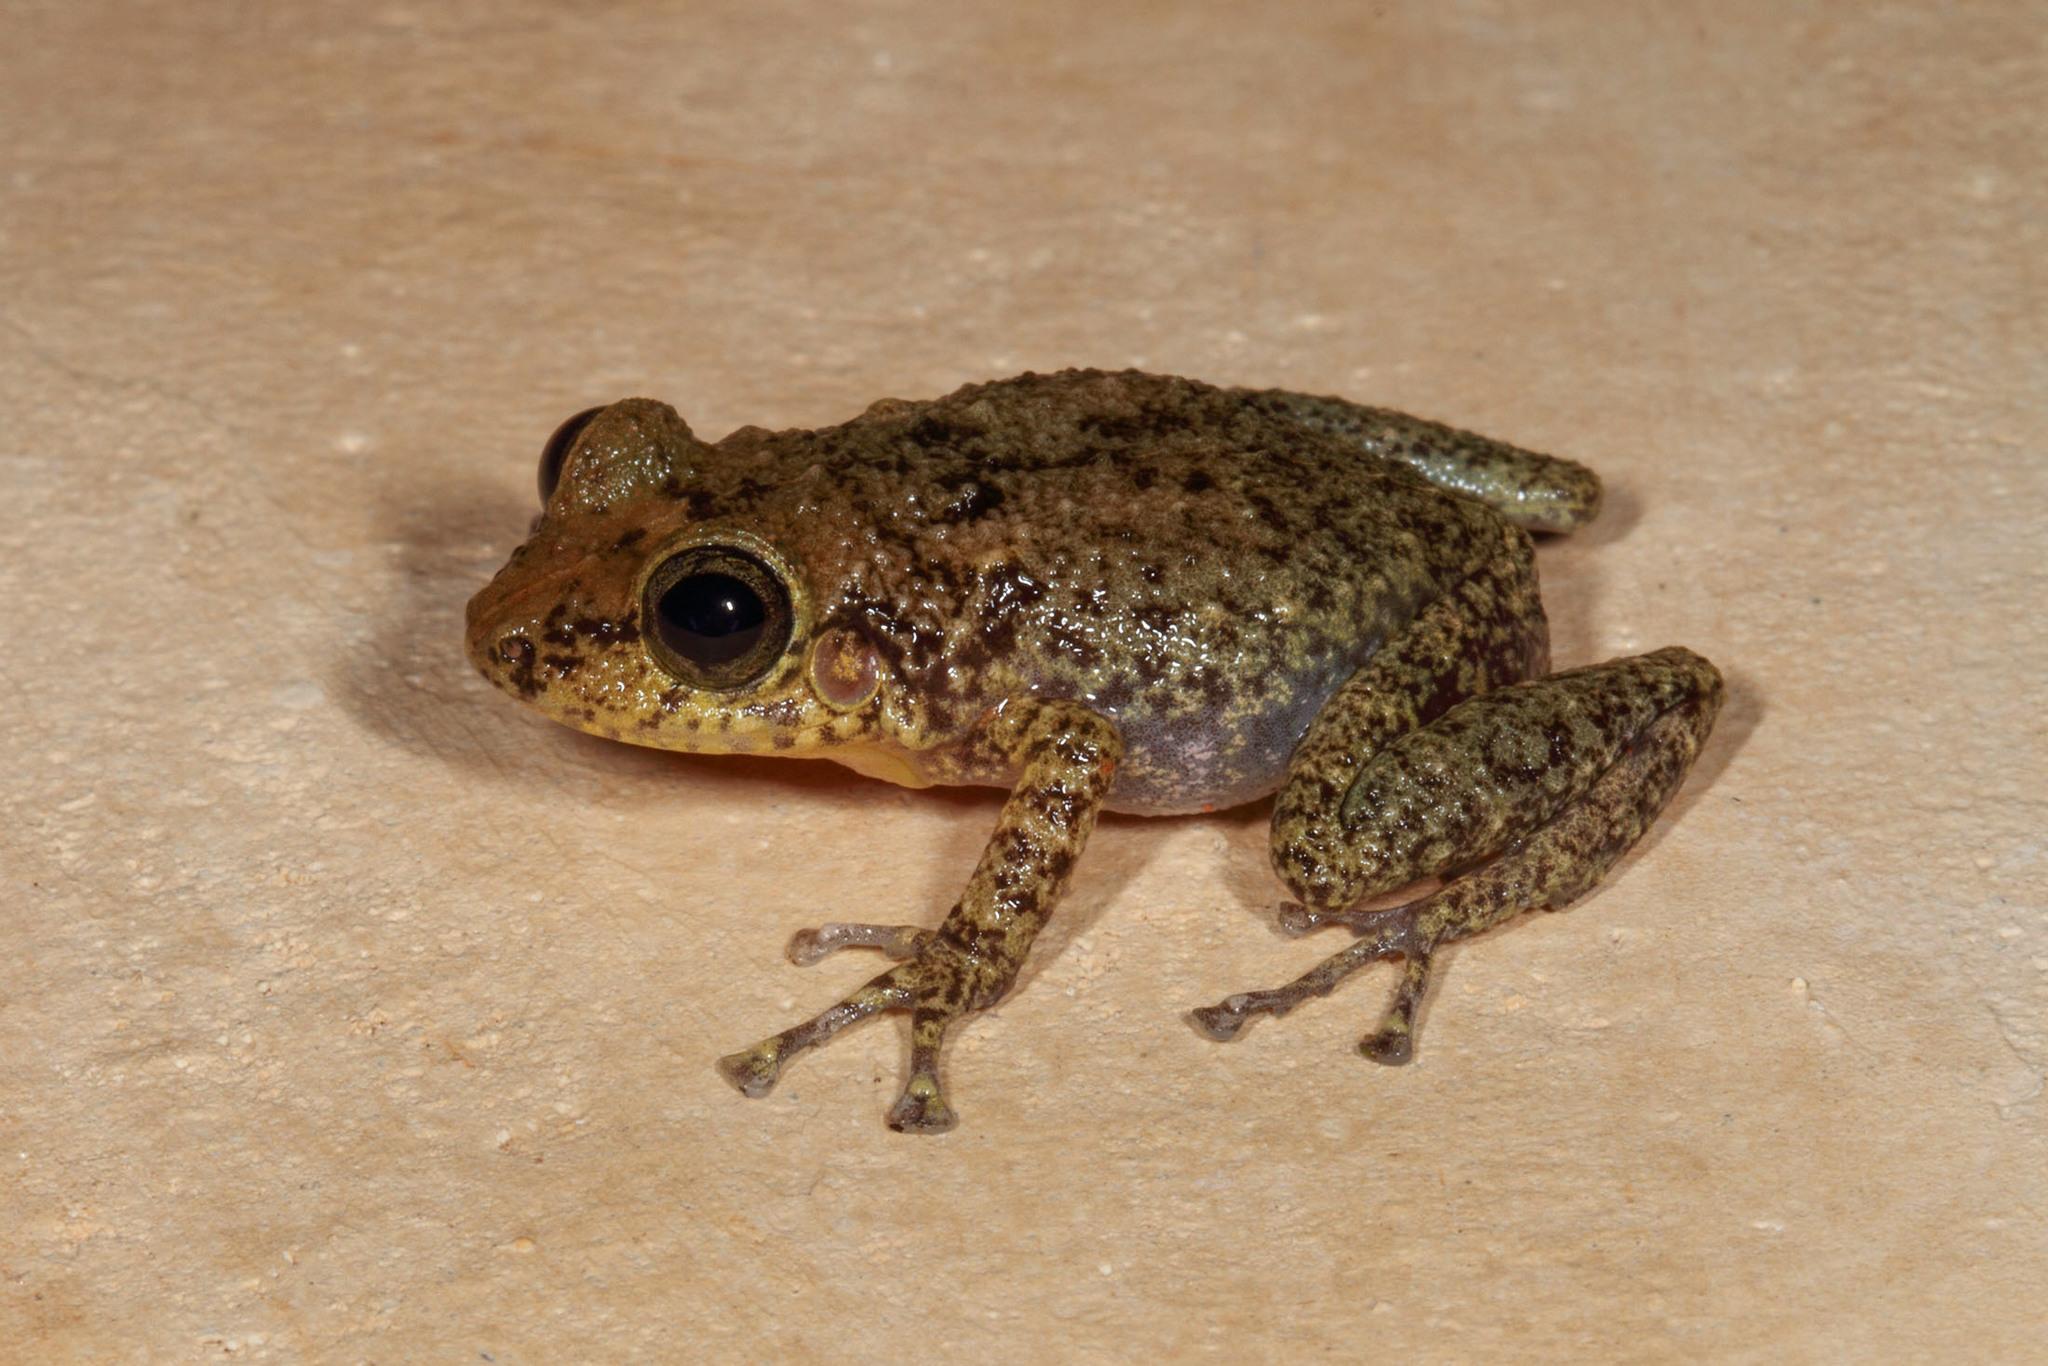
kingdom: Animalia
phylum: Chordata
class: Amphibia
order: Anura
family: Eleutherodactylidae
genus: Eleutherodactylus
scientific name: Eleutherodactylus flavescens
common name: Yellow split-toed frog
